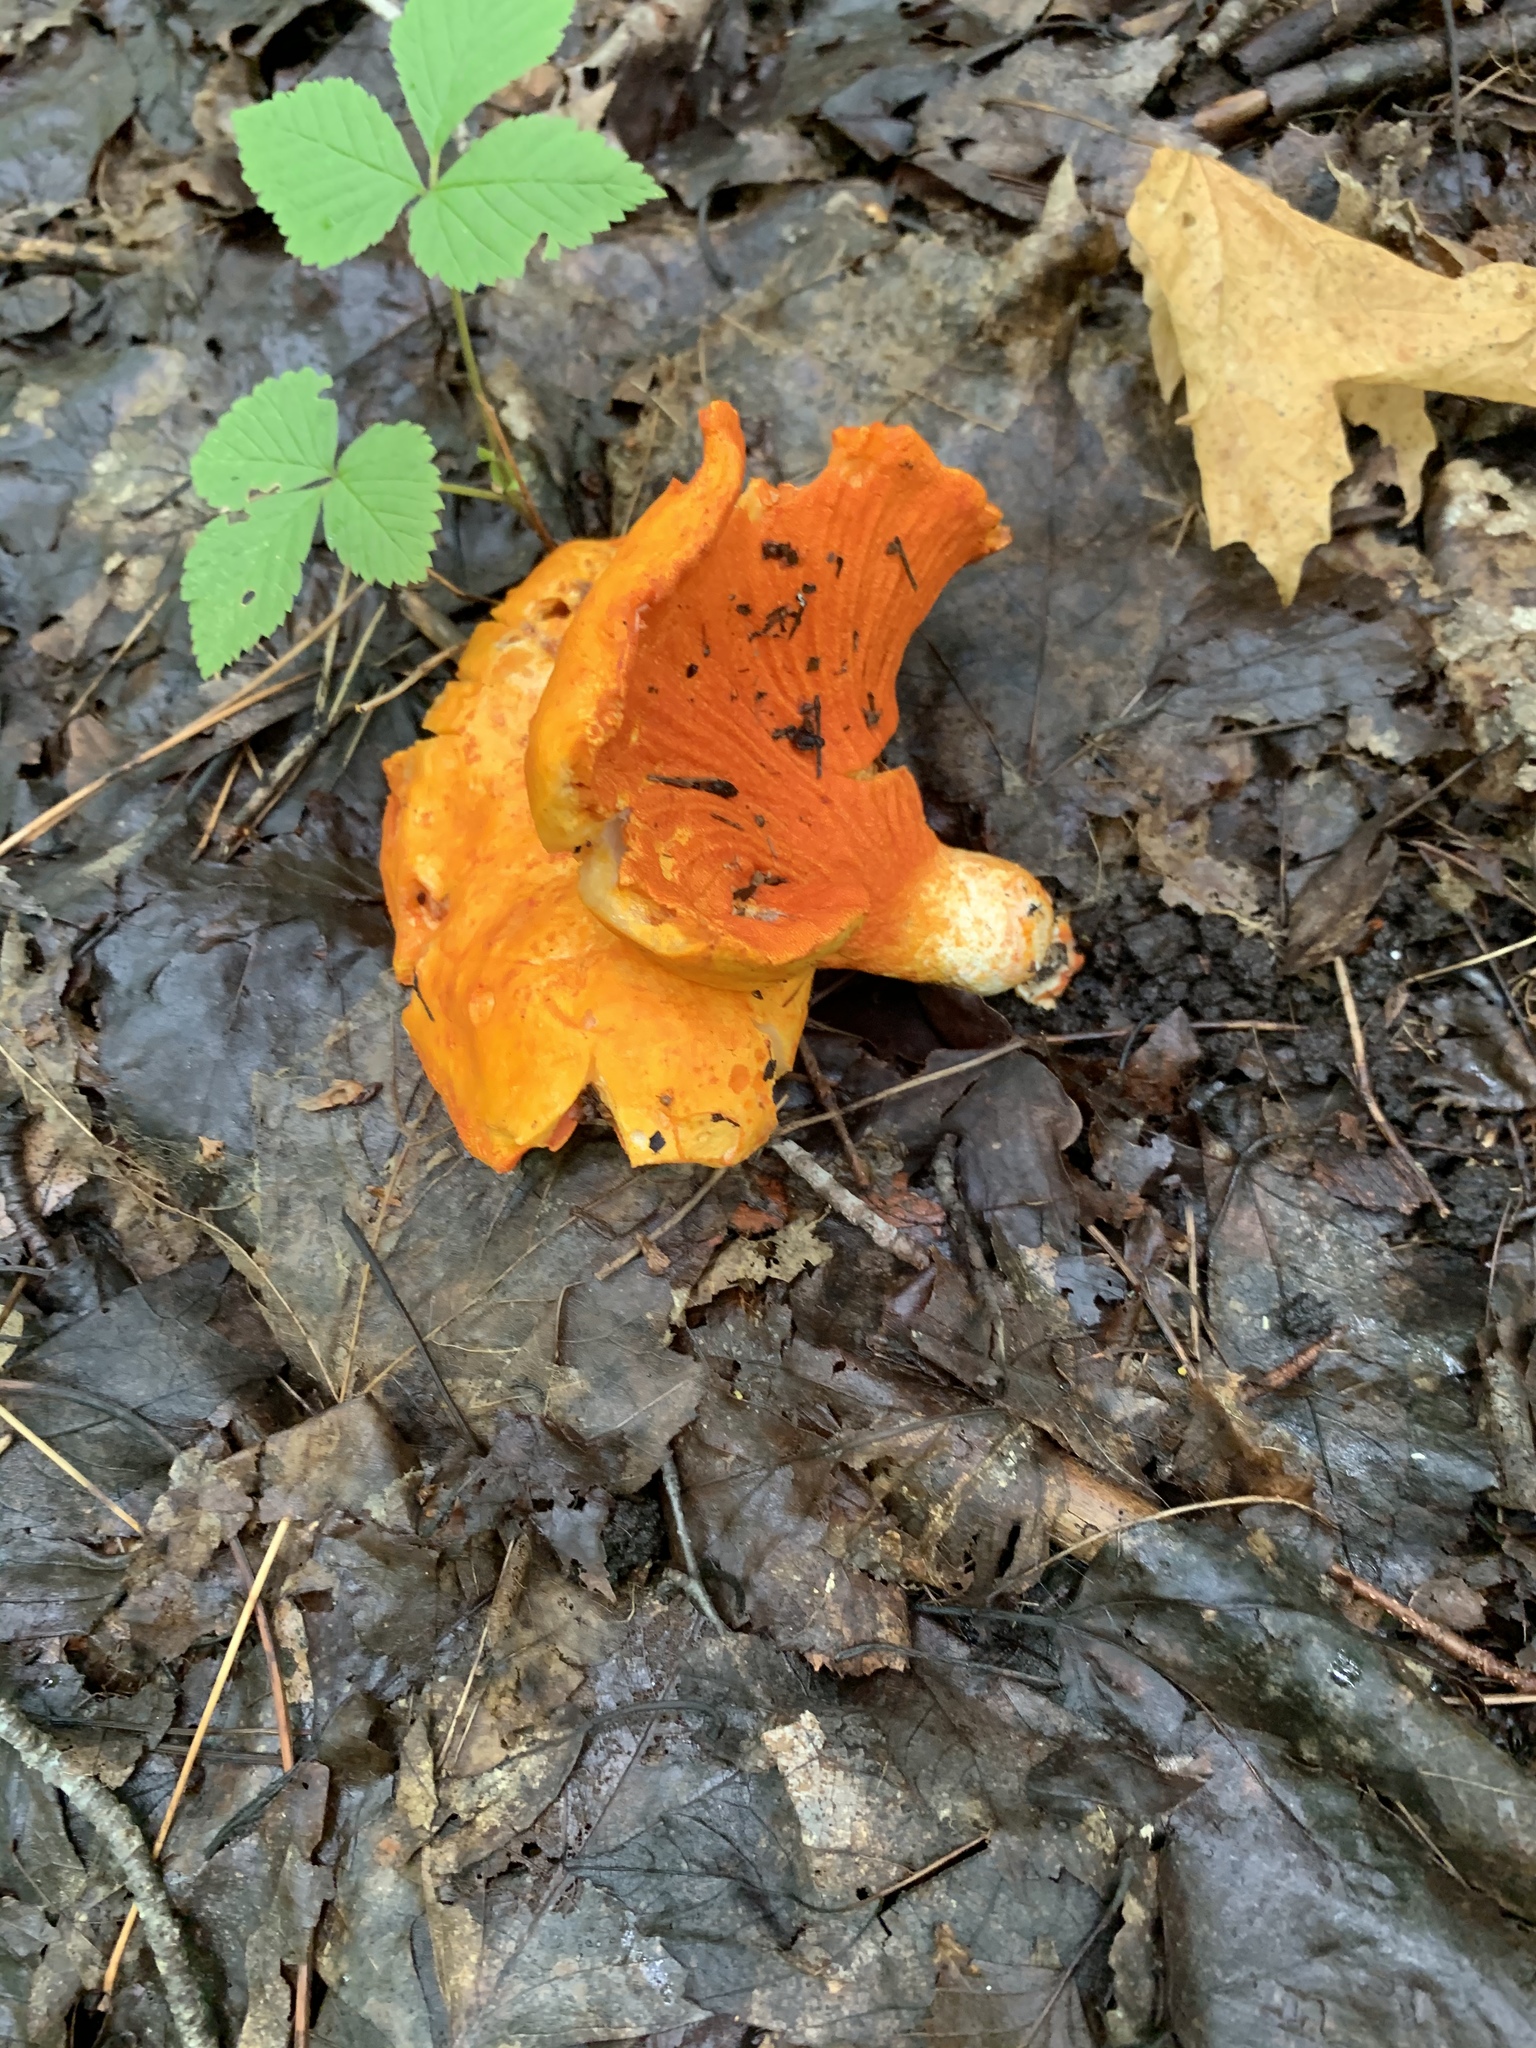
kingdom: Fungi
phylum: Ascomycota
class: Sordariomycetes
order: Hypocreales
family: Hypocreaceae
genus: Hypomyces
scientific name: Hypomyces lactifluorum
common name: Lobster mushroom
